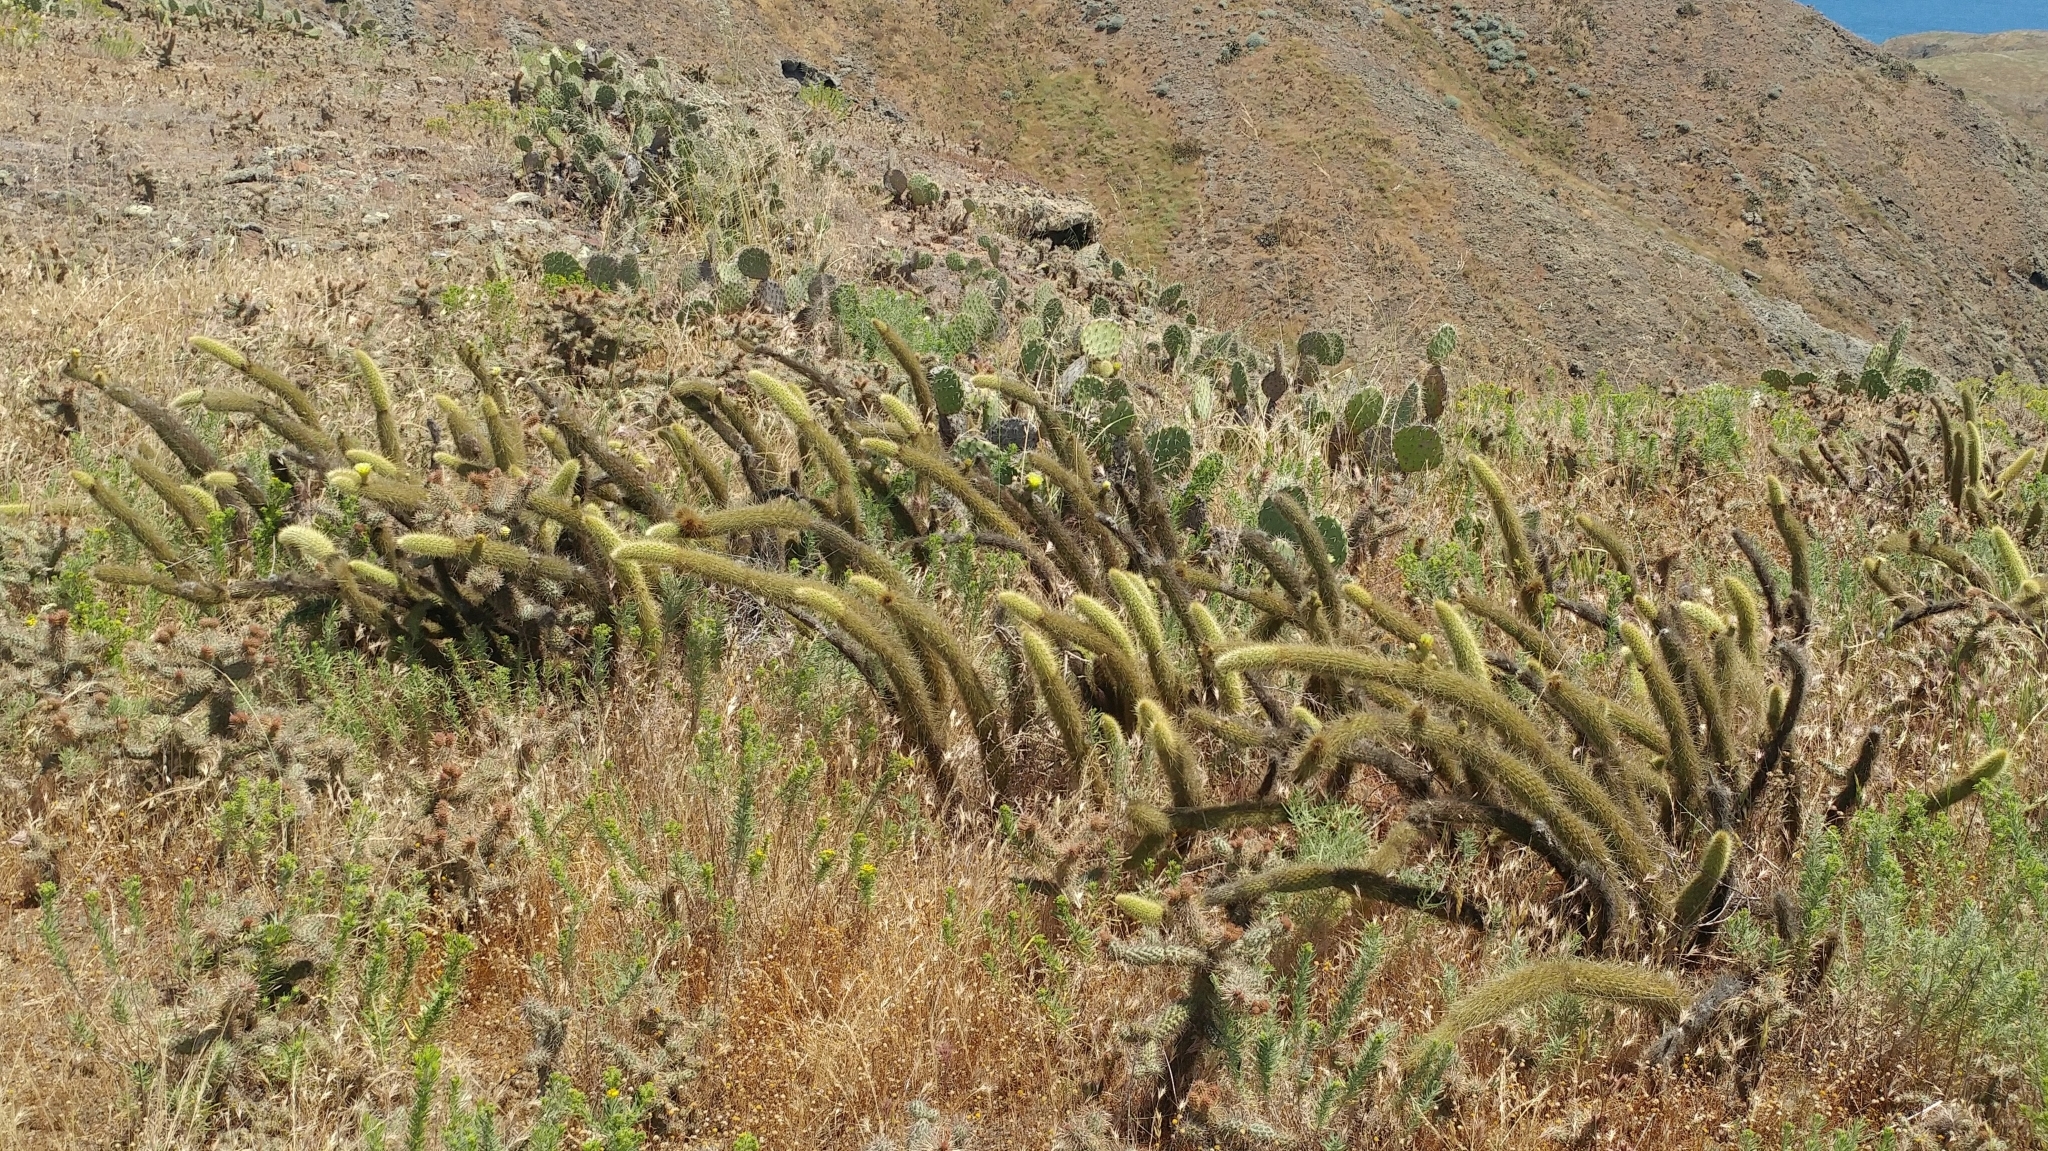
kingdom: Plantae
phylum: Tracheophyta
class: Magnoliopsida
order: Caryophyllales
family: Cactaceae
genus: Bergerocactus
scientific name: Bergerocactus emoryi
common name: Golden snakecactus
